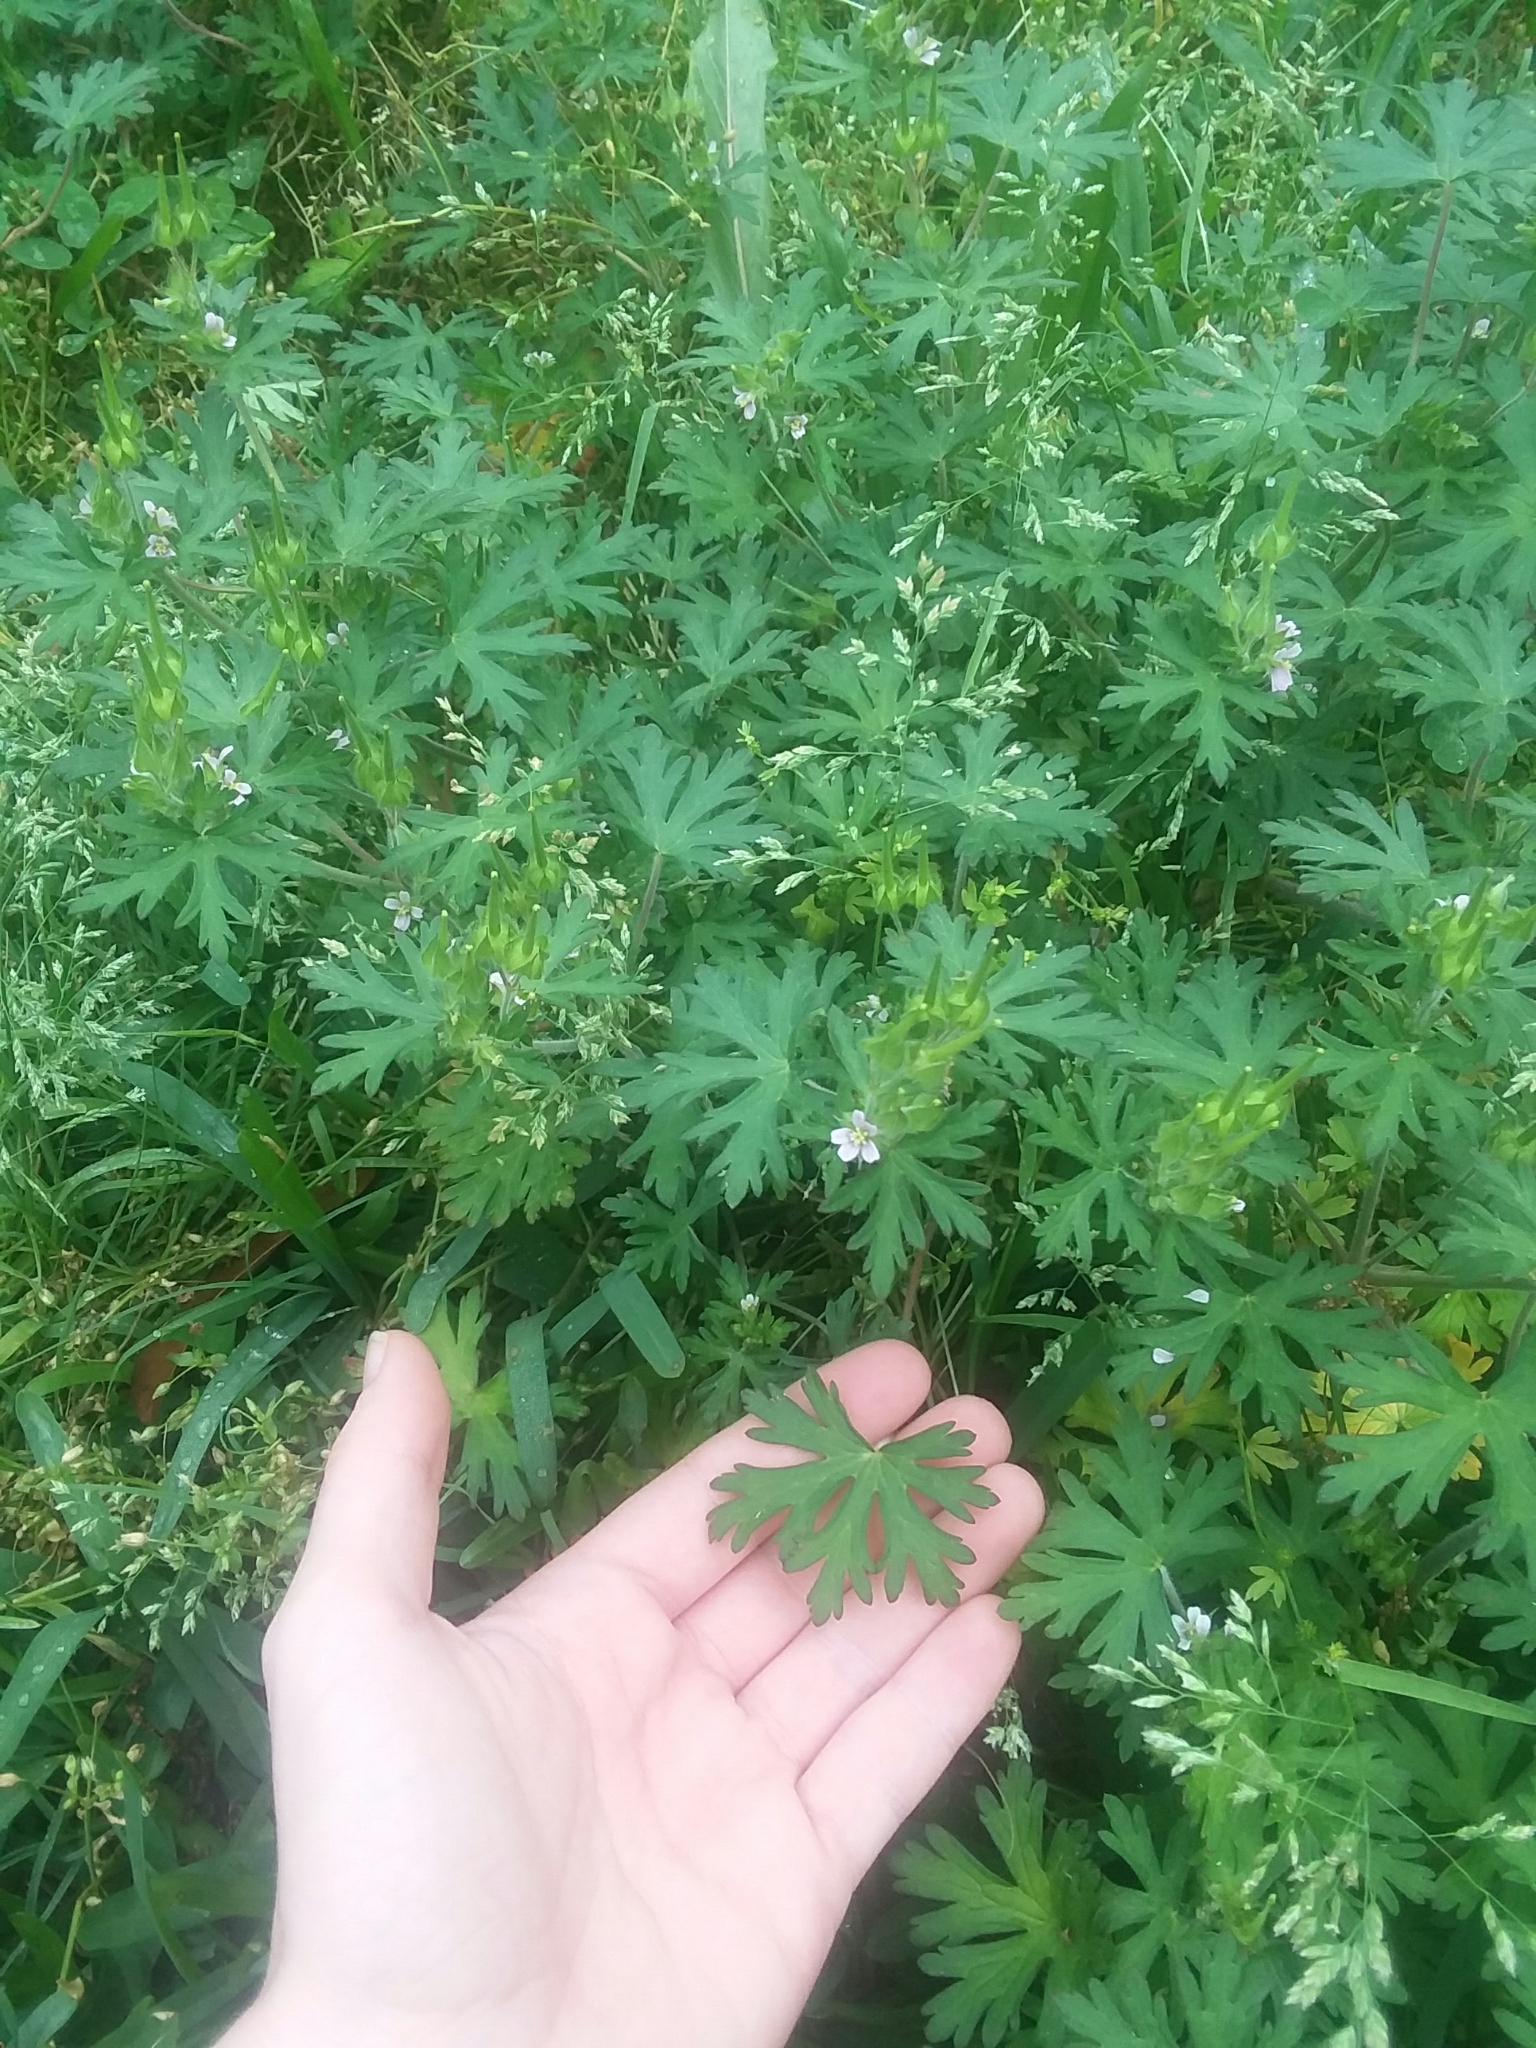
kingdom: Plantae
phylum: Tracheophyta
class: Magnoliopsida
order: Geraniales
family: Geraniaceae
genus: Geranium
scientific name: Geranium carolinianum
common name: Carolina crane's-bill
